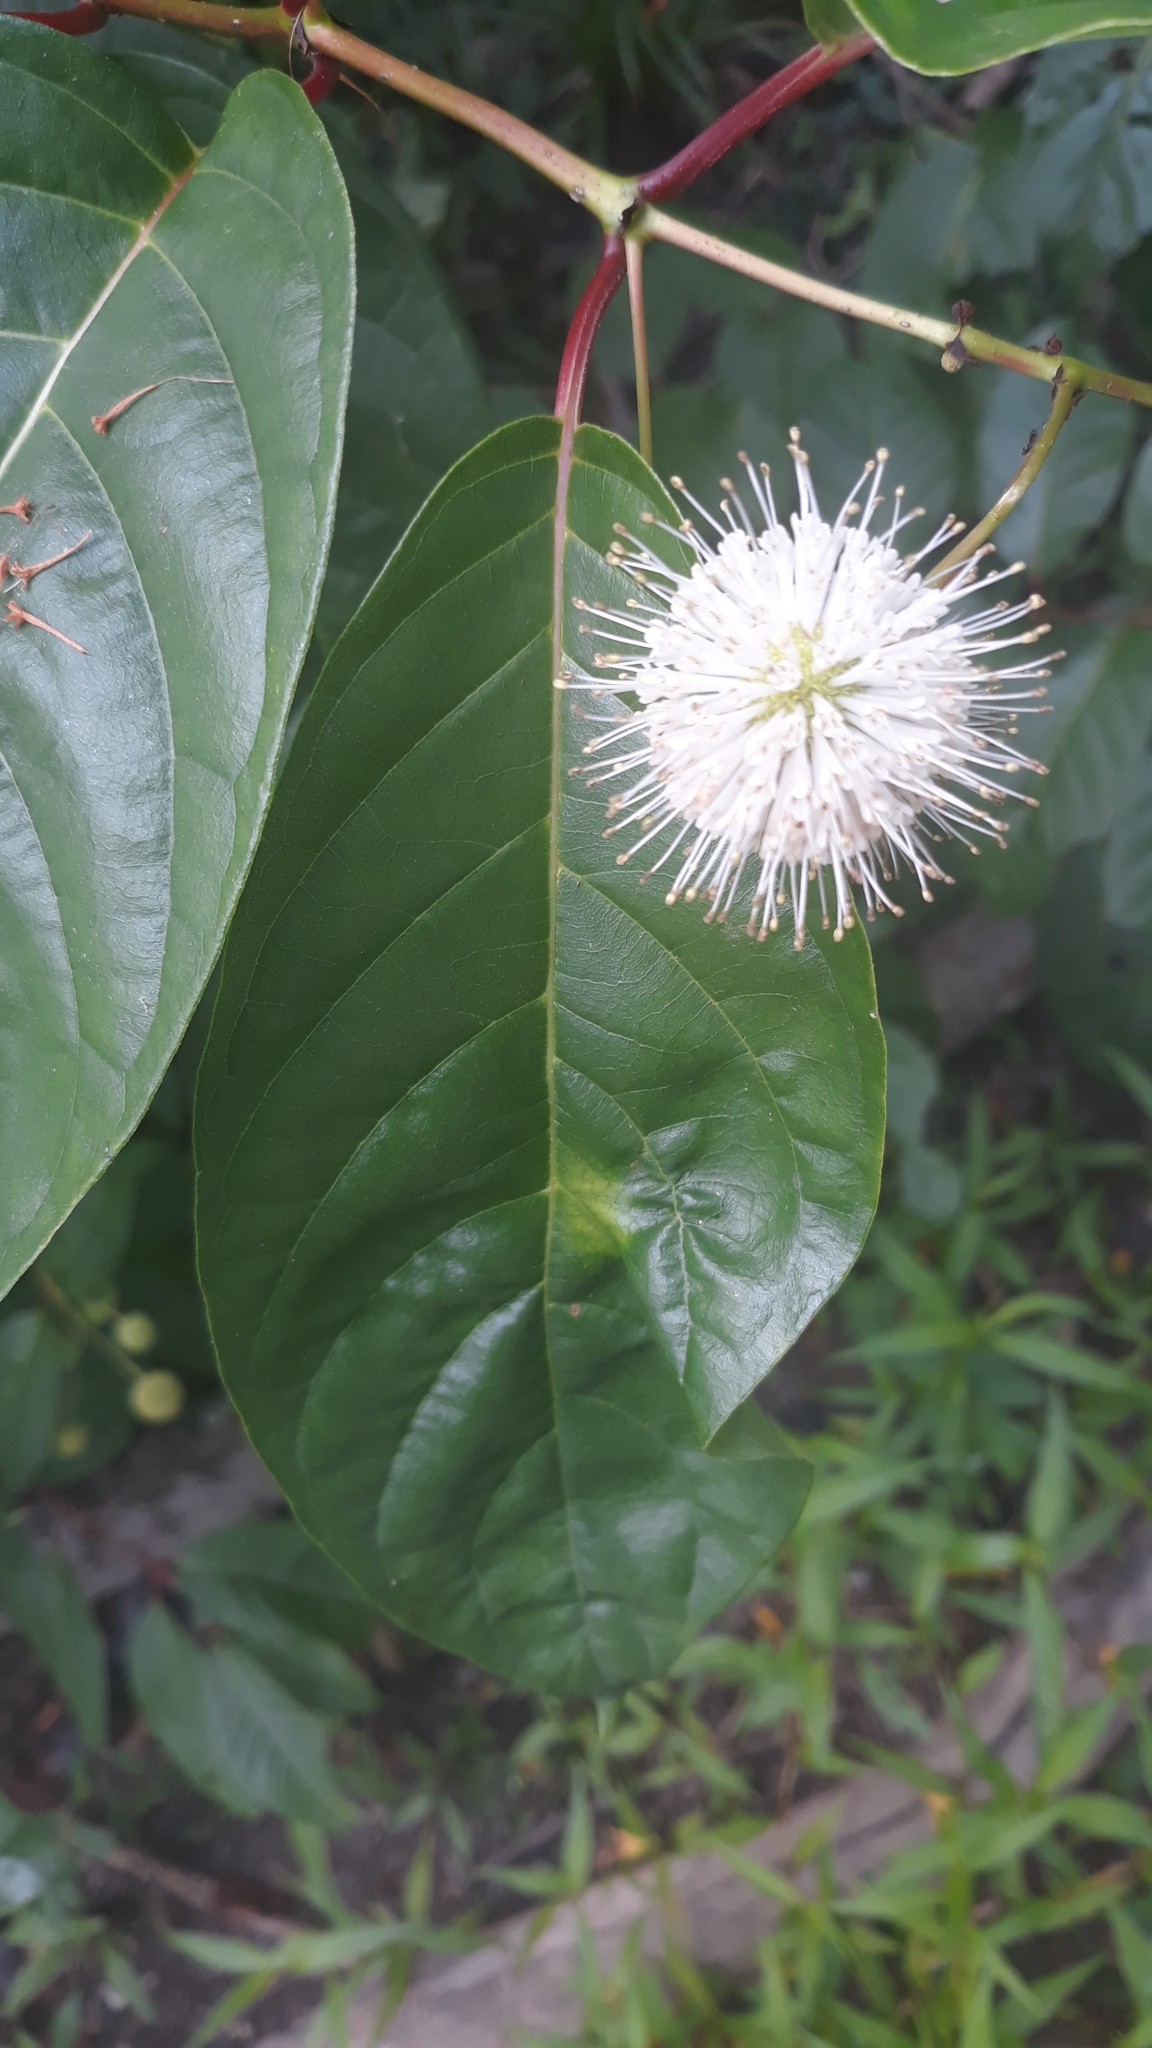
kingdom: Plantae
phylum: Tracheophyta
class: Magnoliopsida
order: Gentianales
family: Rubiaceae
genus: Cephalanthus
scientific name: Cephalanthus occidentalis
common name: Button-willow
